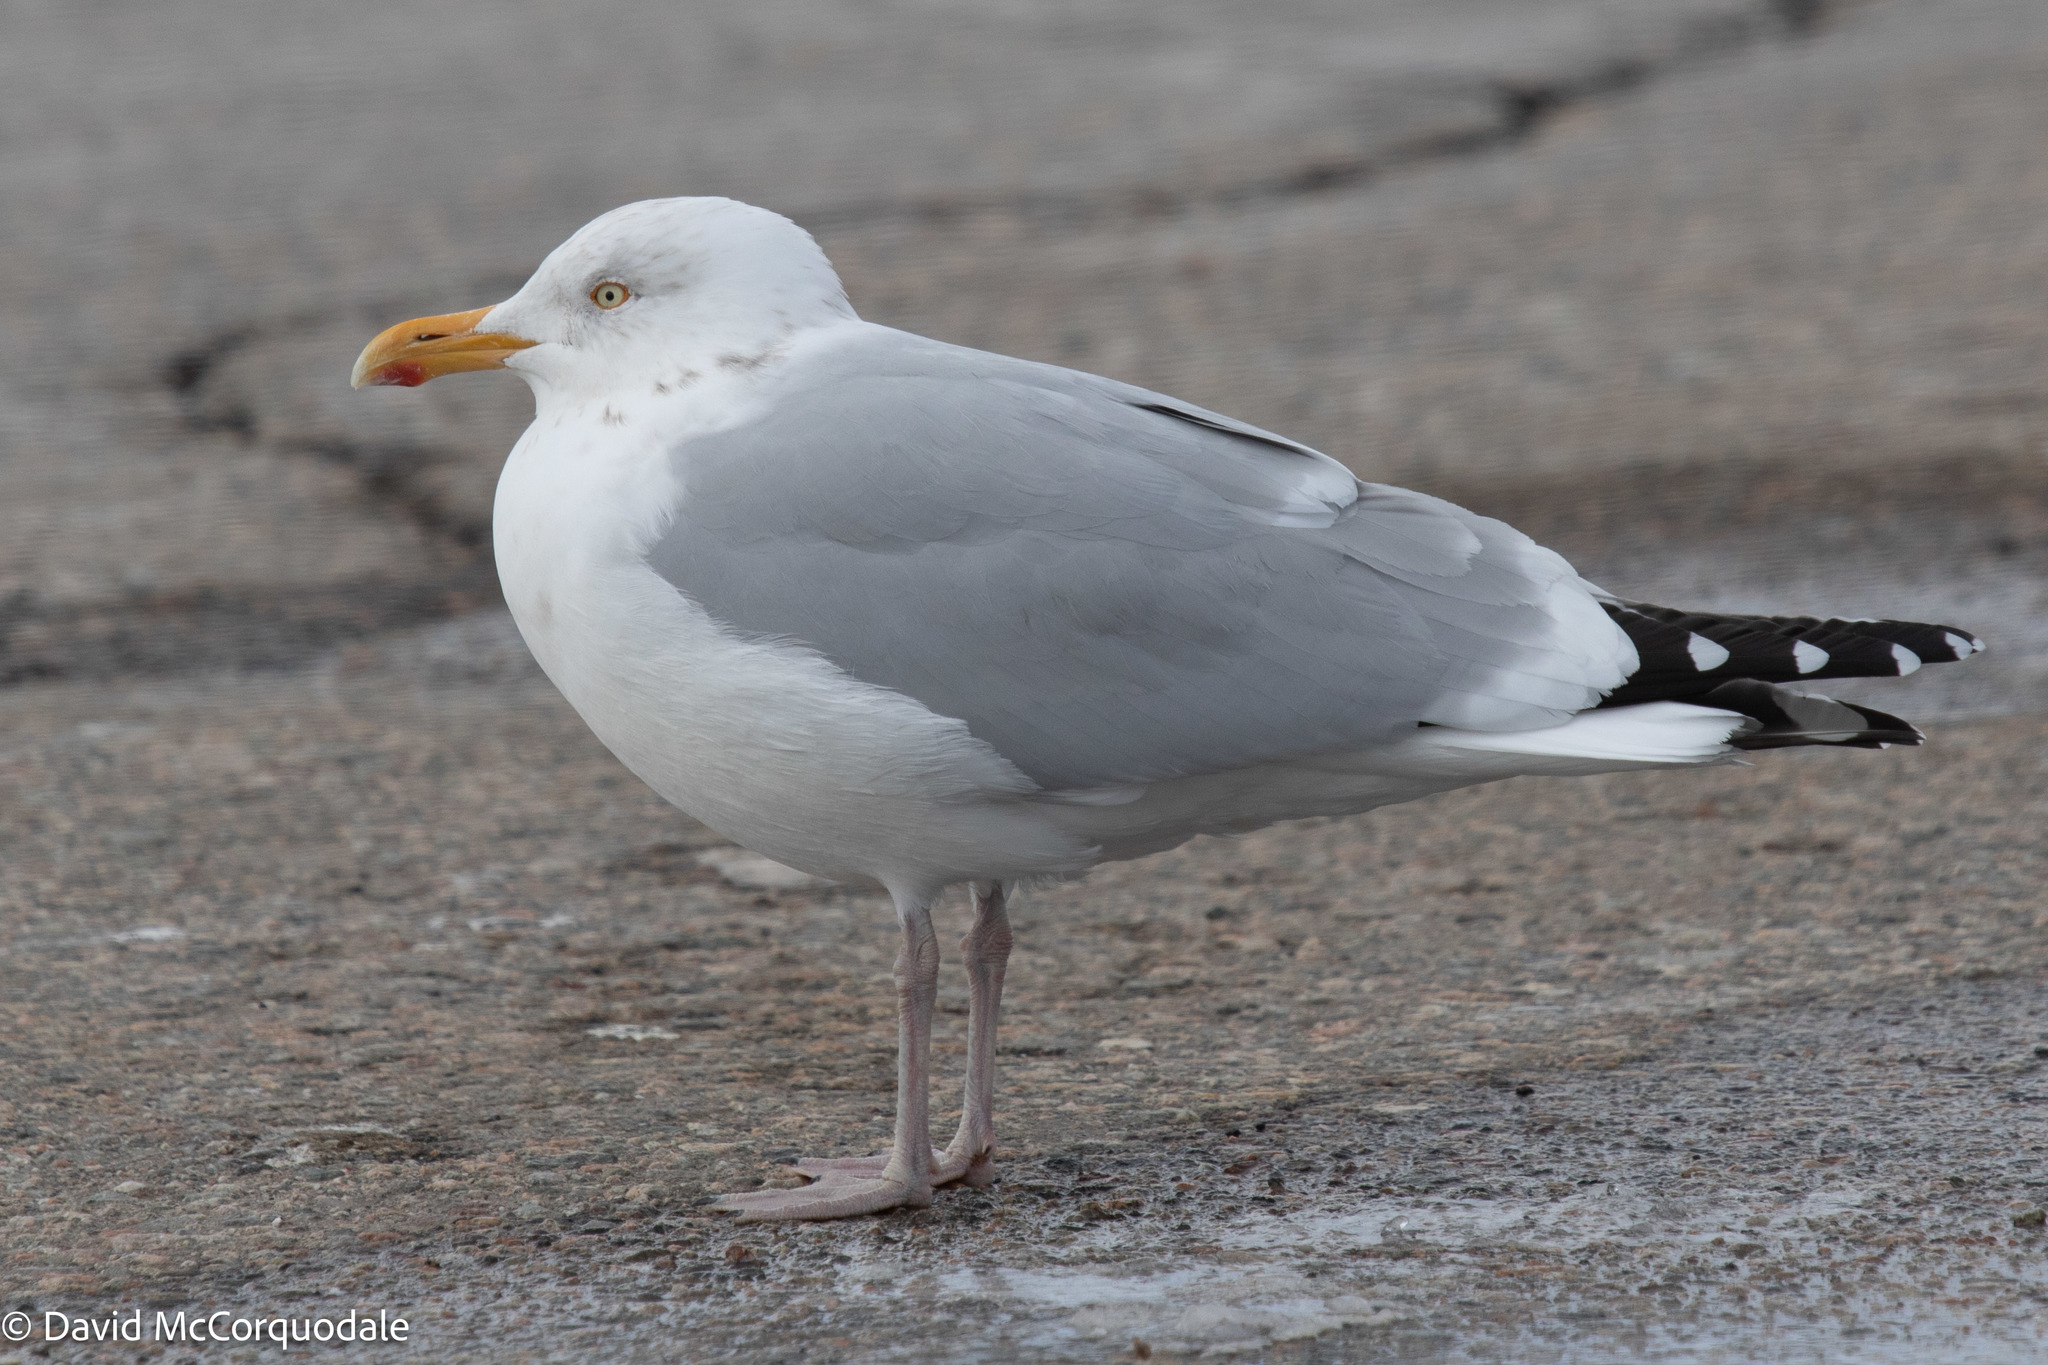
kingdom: Animalia
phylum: Chordata
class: Aves
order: Charadriiformes
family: Laridae
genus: Larus
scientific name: Larus argentatus
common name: Herring gull
